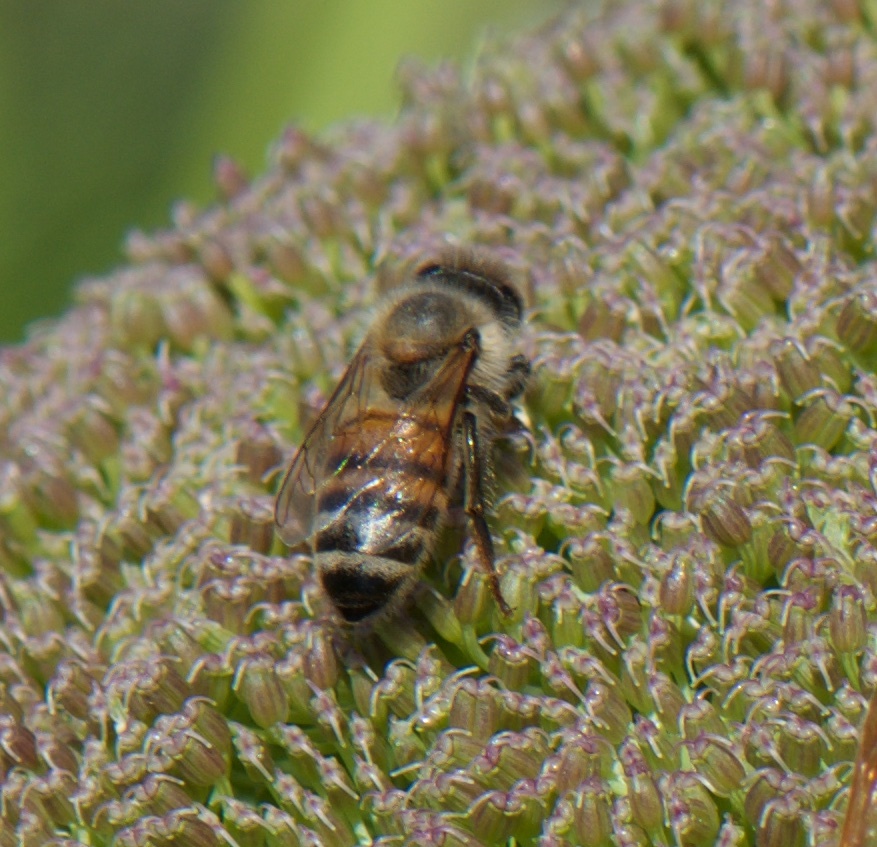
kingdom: Animalia
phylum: Arthropoda
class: Insecta
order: Hymenoptera
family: Apidae
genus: Apis
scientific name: Apis mellifera
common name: Honey bee
